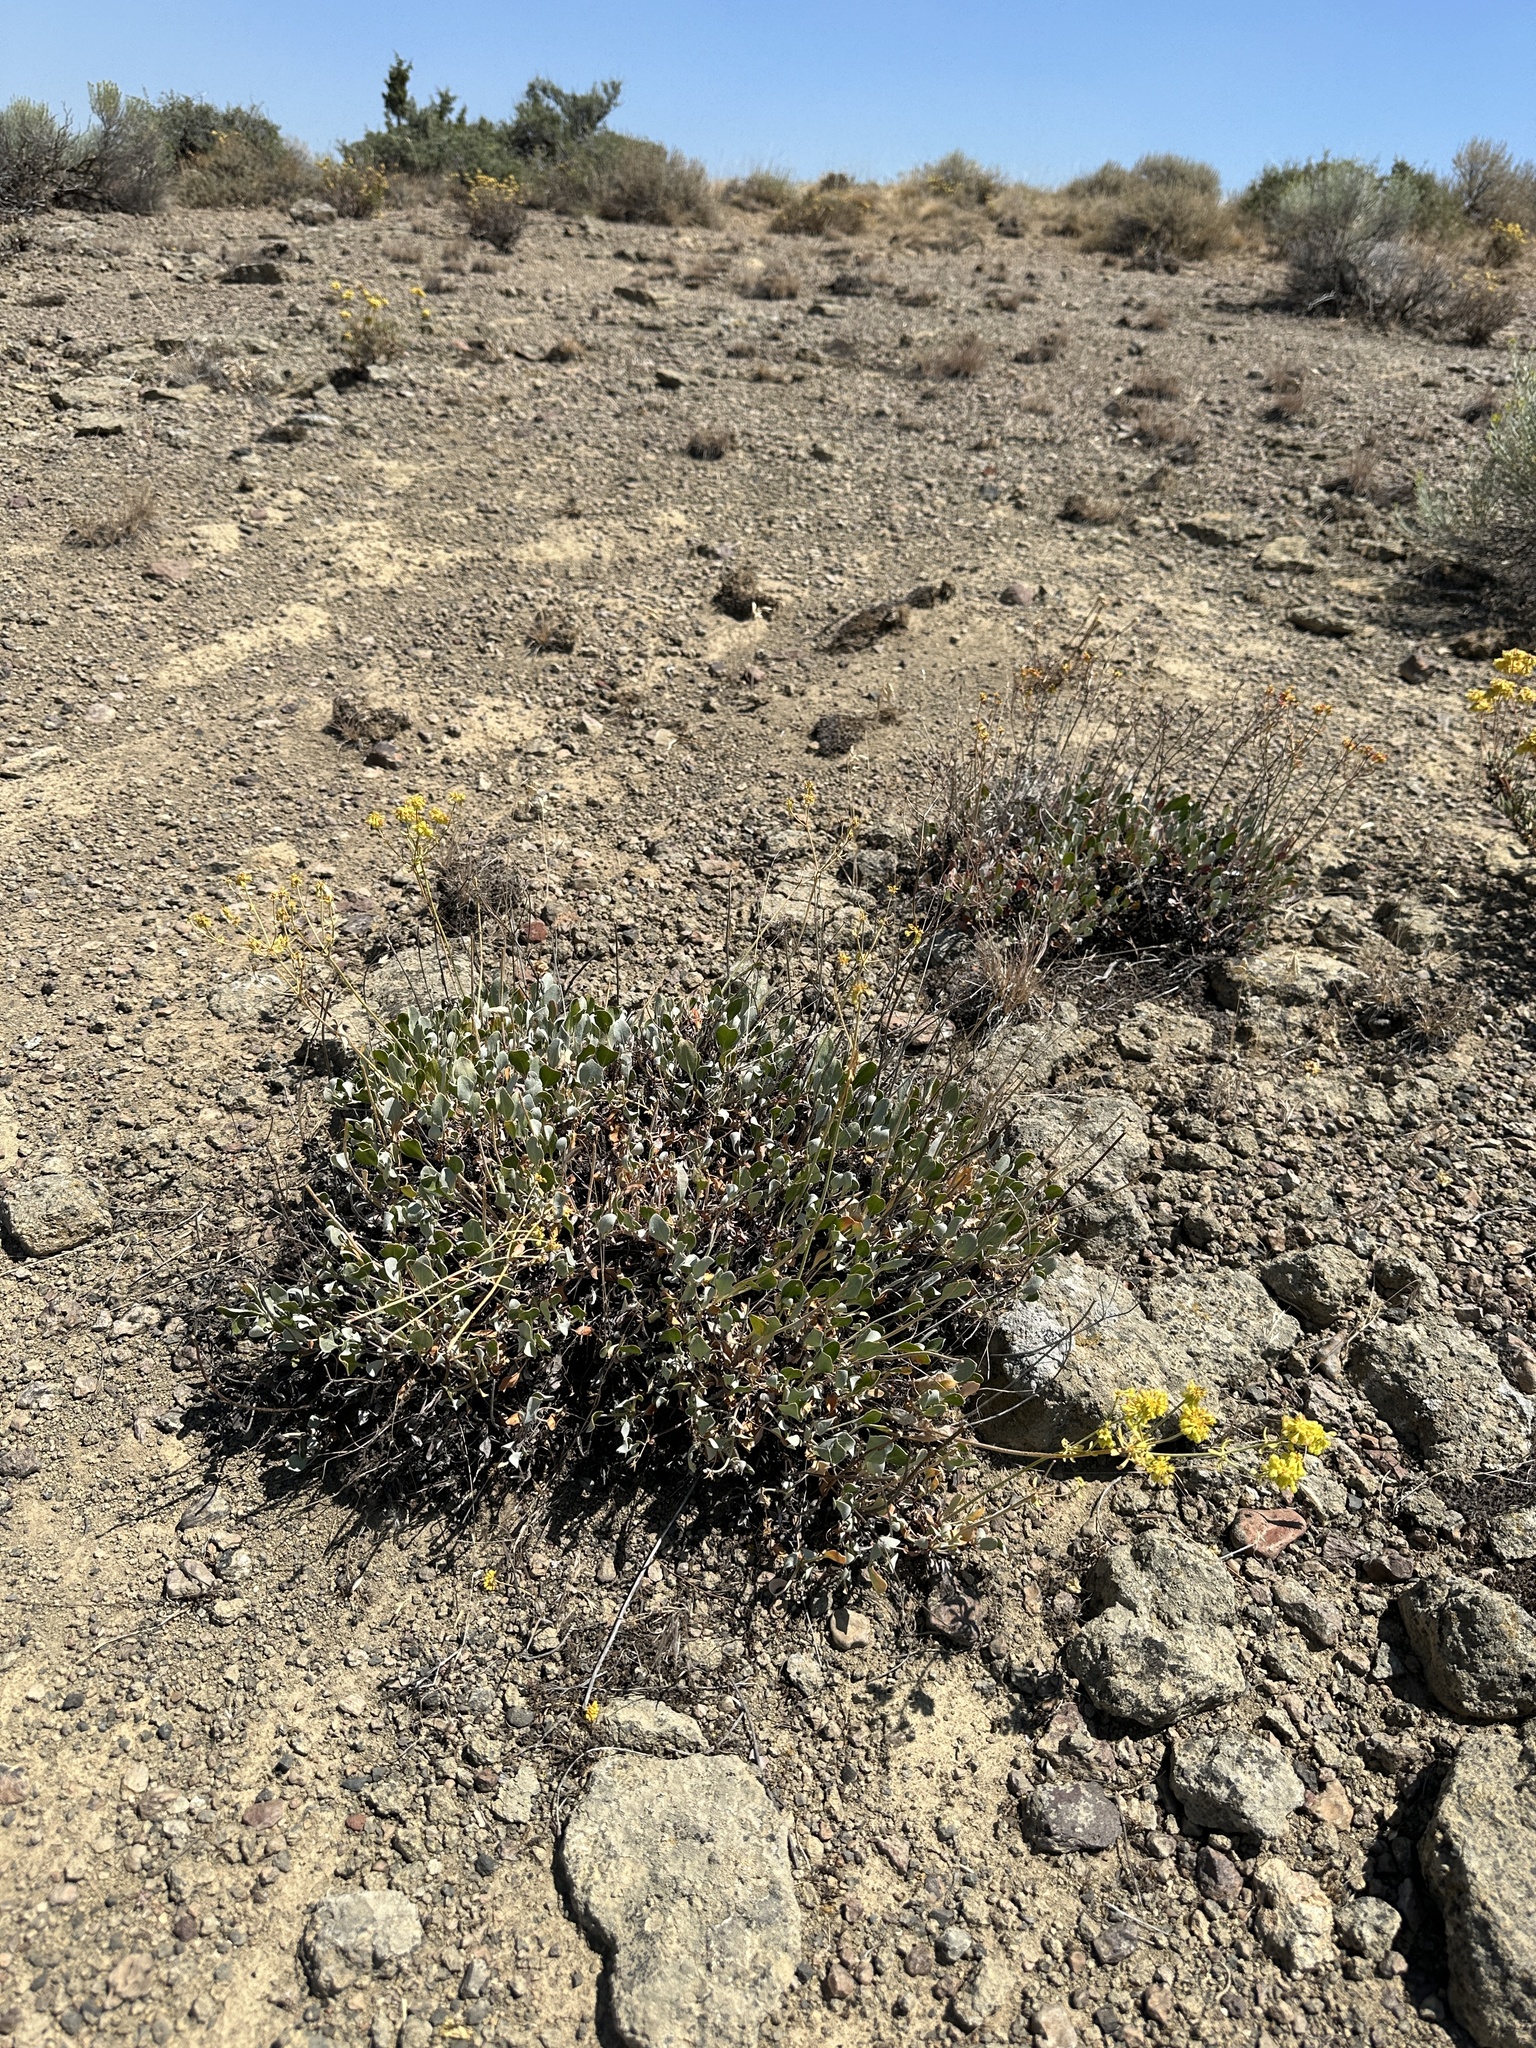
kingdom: Plantae
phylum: Tracheophyta
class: Magnoliopsida
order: Caryophyllales
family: Polygonaceae
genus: Eriogonum
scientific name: Eriogonum umbellatum
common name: Sulfur-buckwheat
